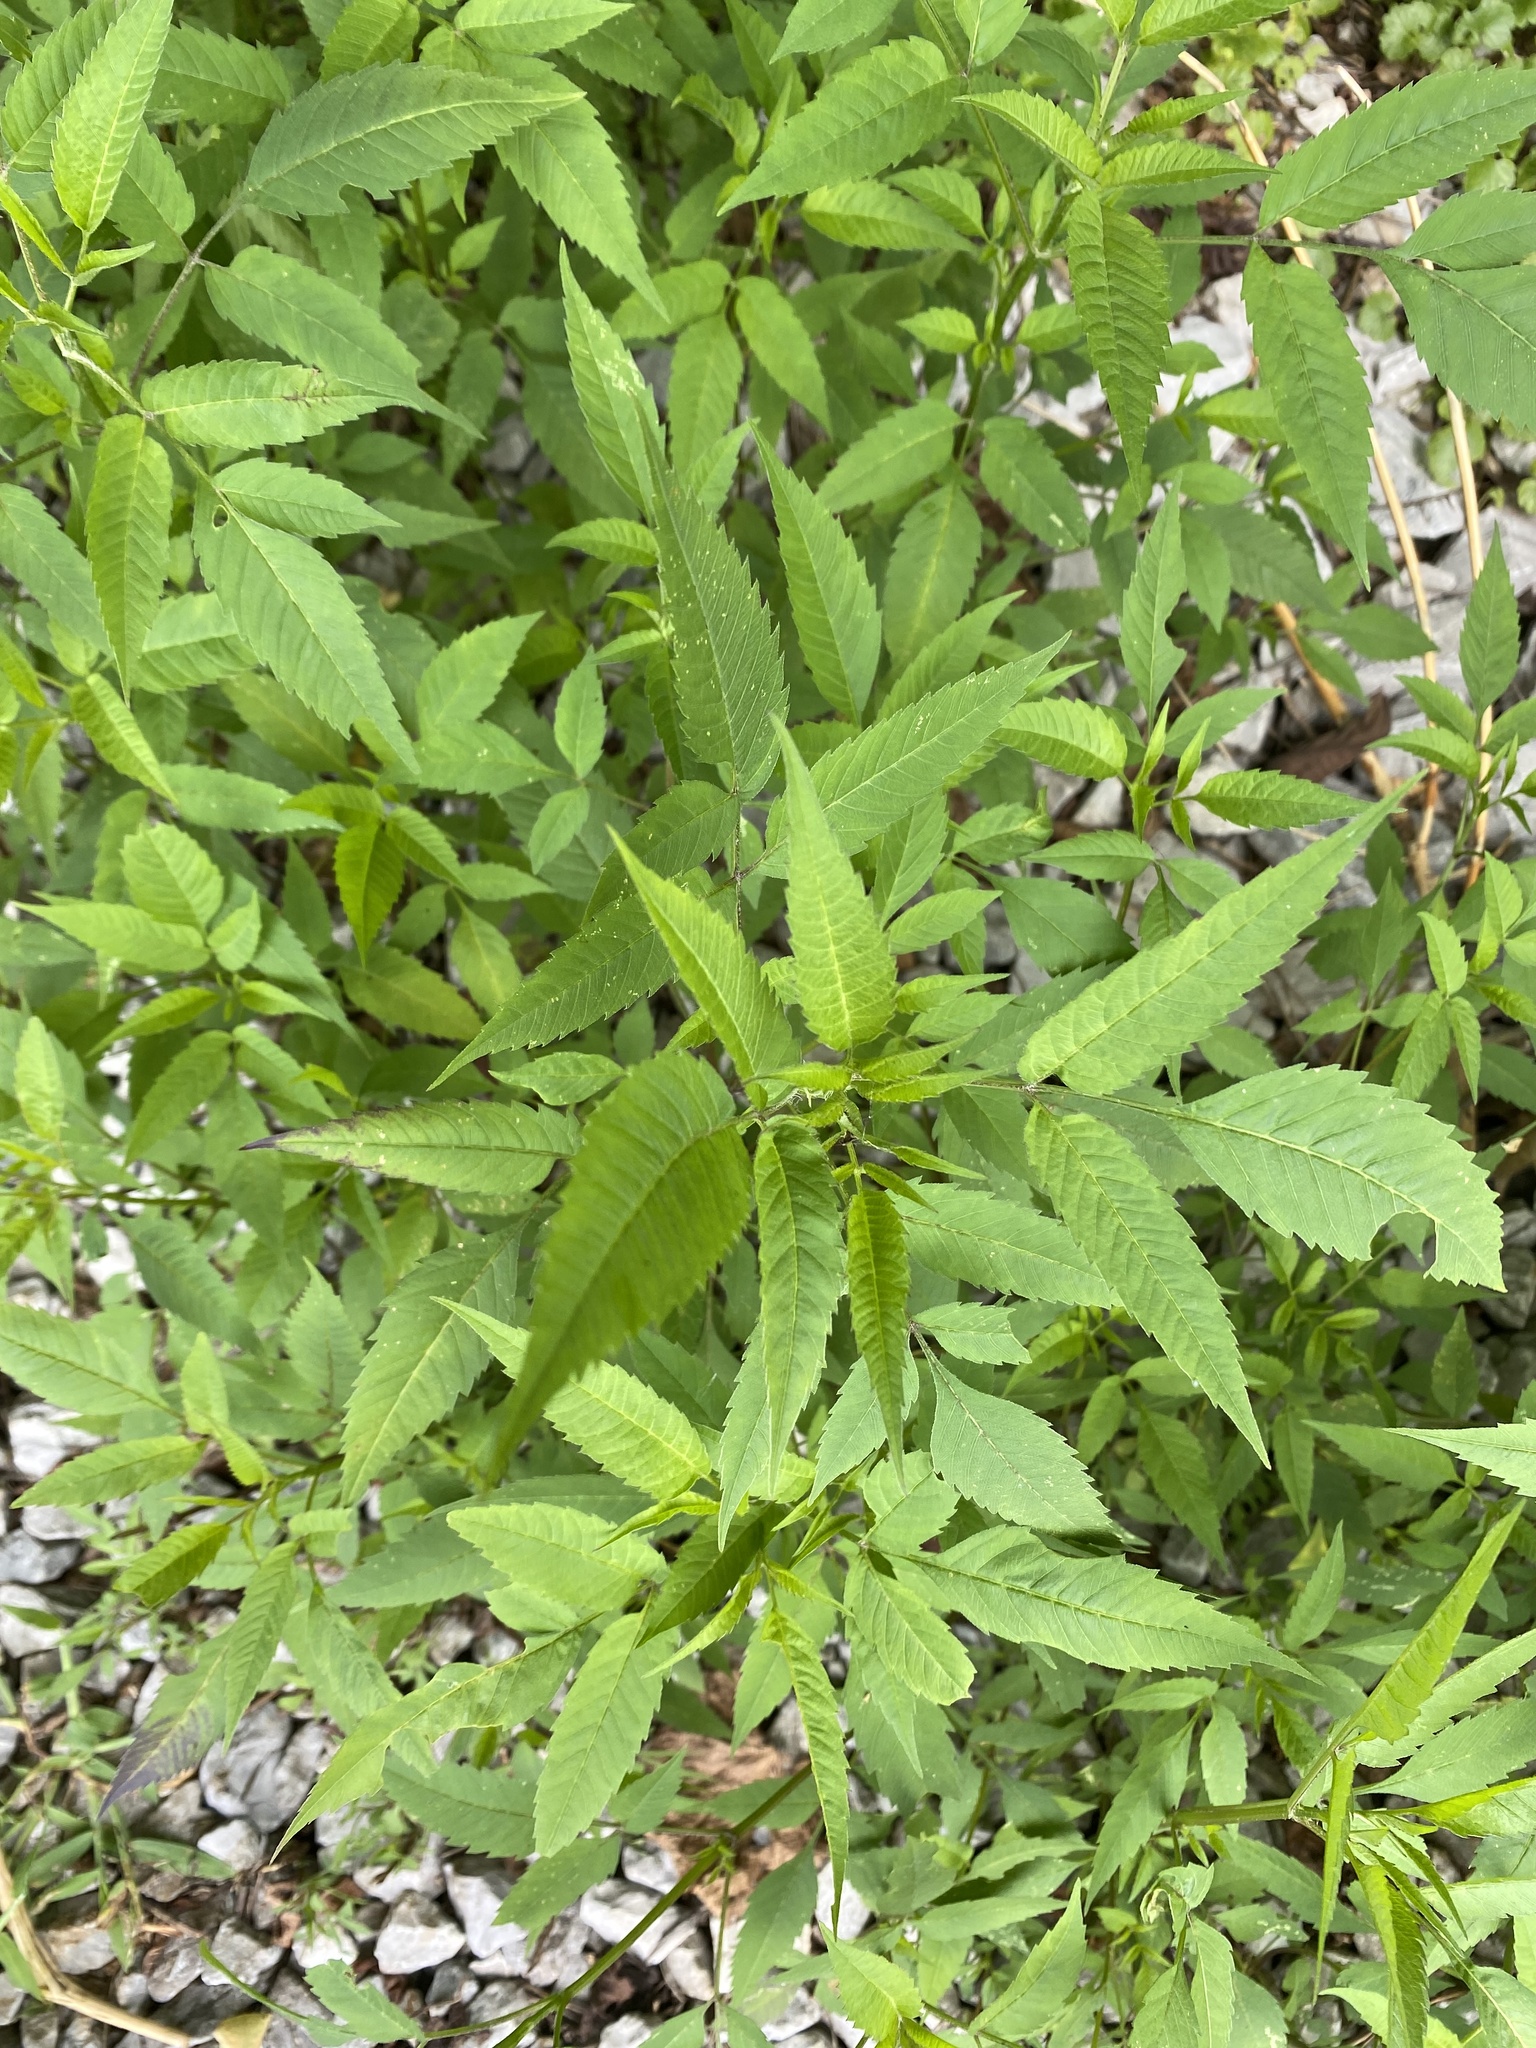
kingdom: Plantae
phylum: Tracheophyta
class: Magnoliopsida
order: Asterales
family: Asteraceae
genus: Bidens
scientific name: Bidens frondosa
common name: Beggarticks
